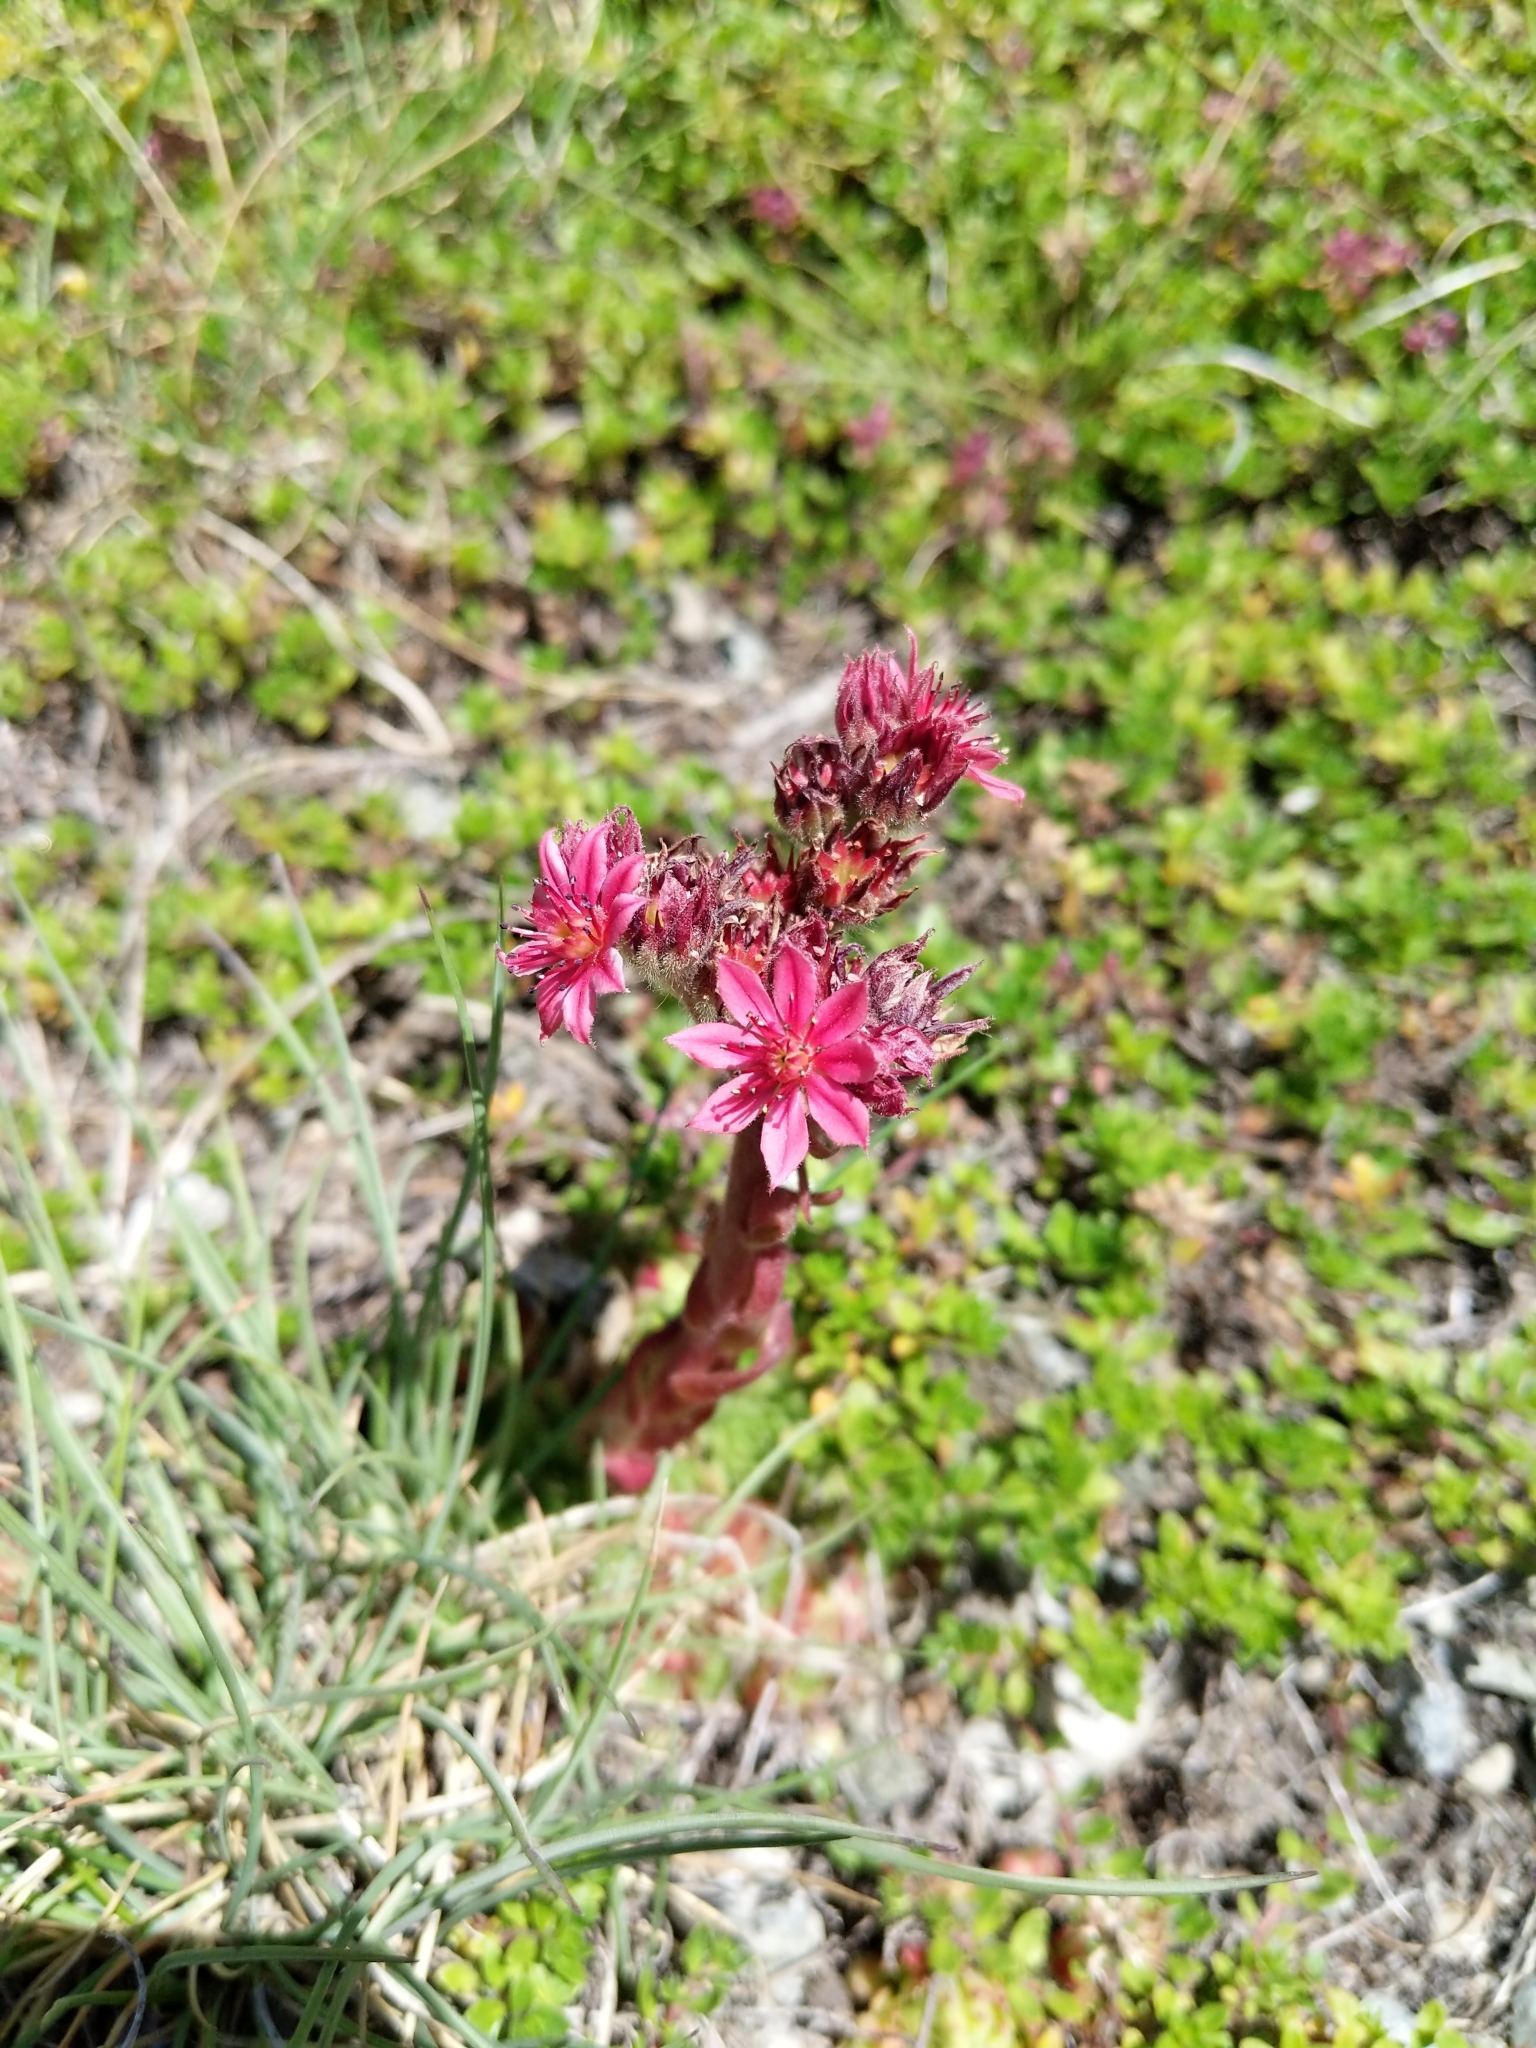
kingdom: Plantae
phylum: Tracheophyta
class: Magnoliopsida
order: Saxifragales
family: Crassulaceae
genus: Sempervivum
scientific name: Sempervivum arachnoideum
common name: Cobweb house-leek
